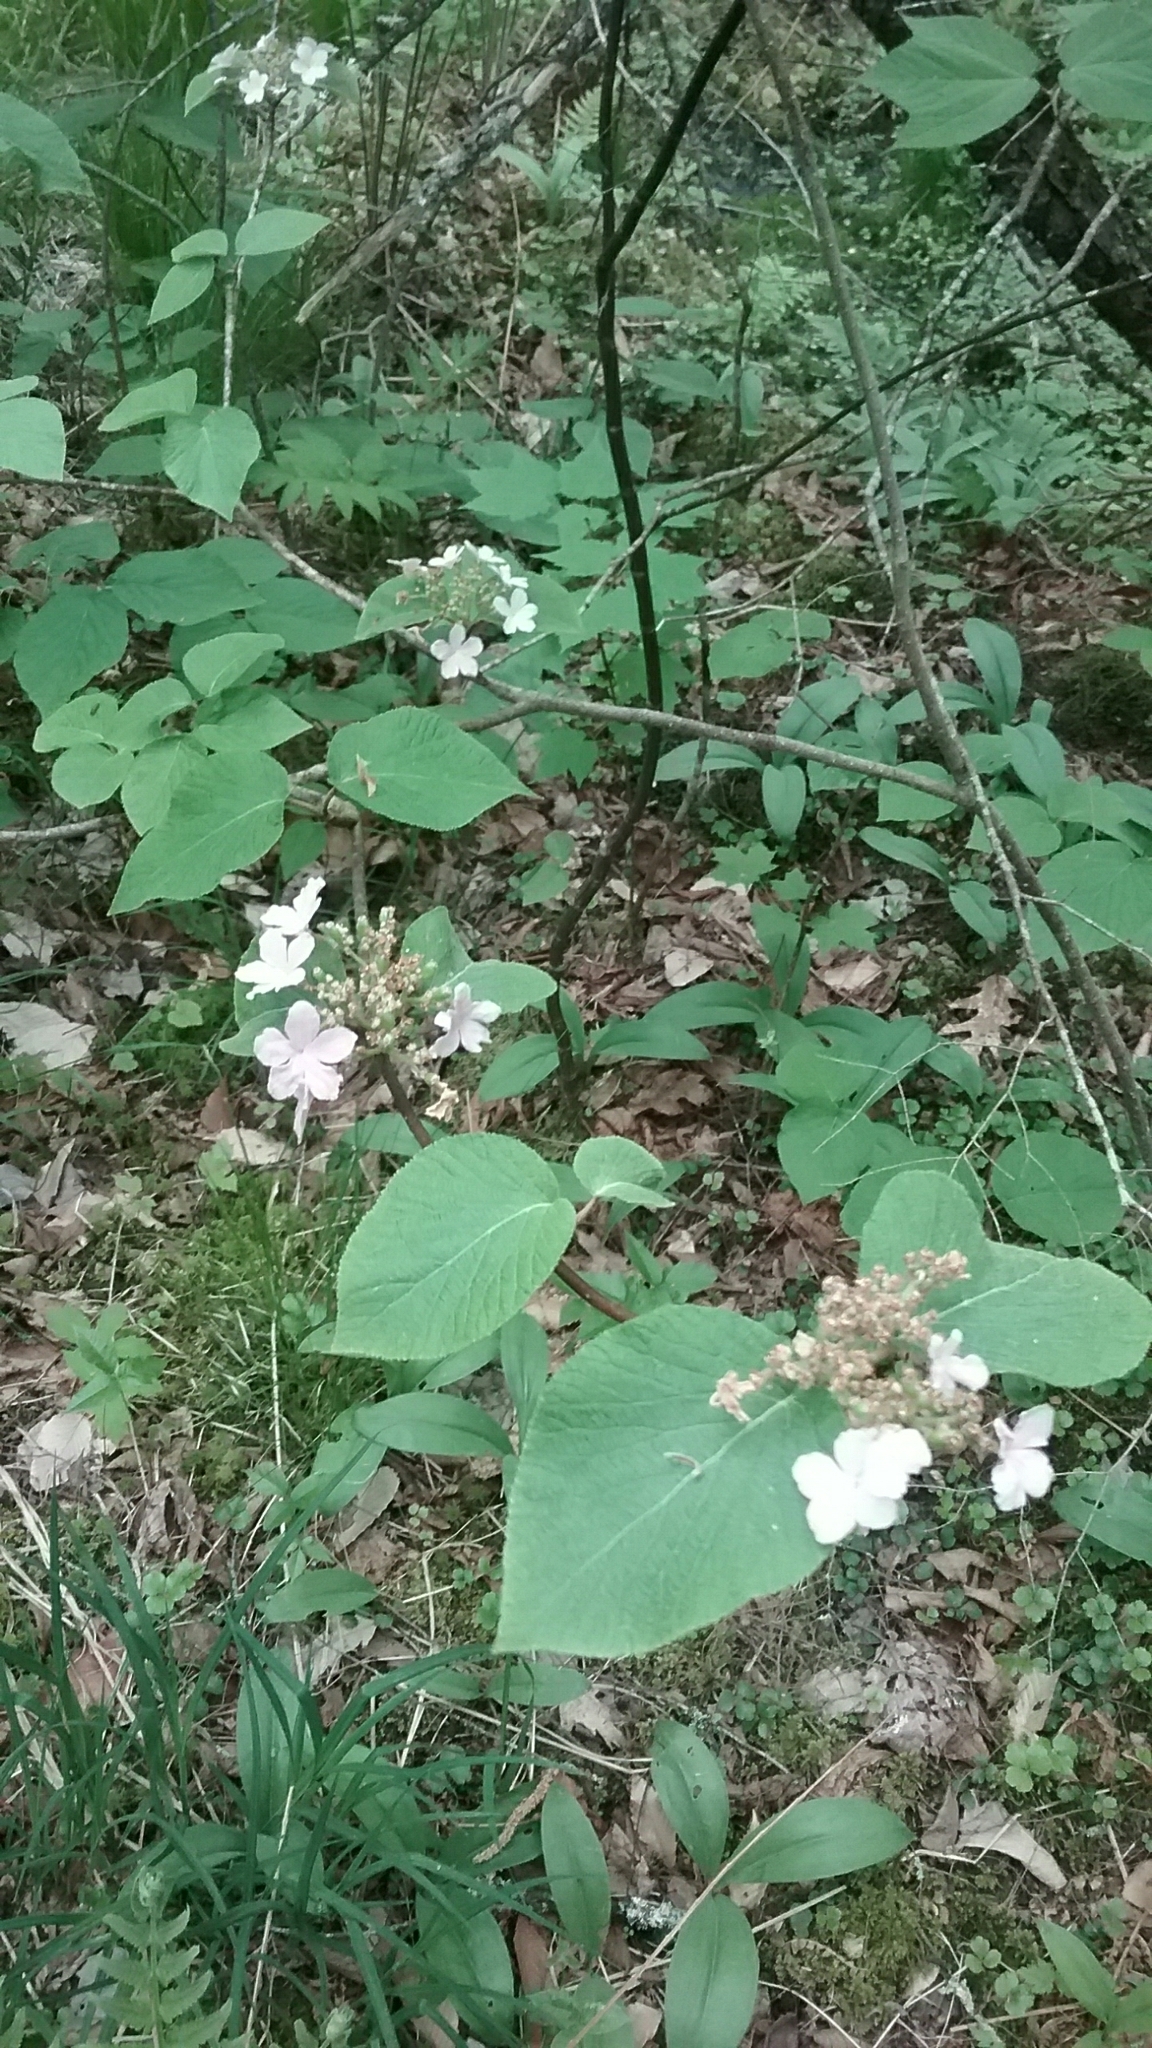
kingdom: Plantae
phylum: Tracheophyta
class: Magnoliopsida
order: Dipsacales
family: Viburnaceae
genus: Viburnum
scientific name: Viburnum lantanoides
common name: Hobblebush
